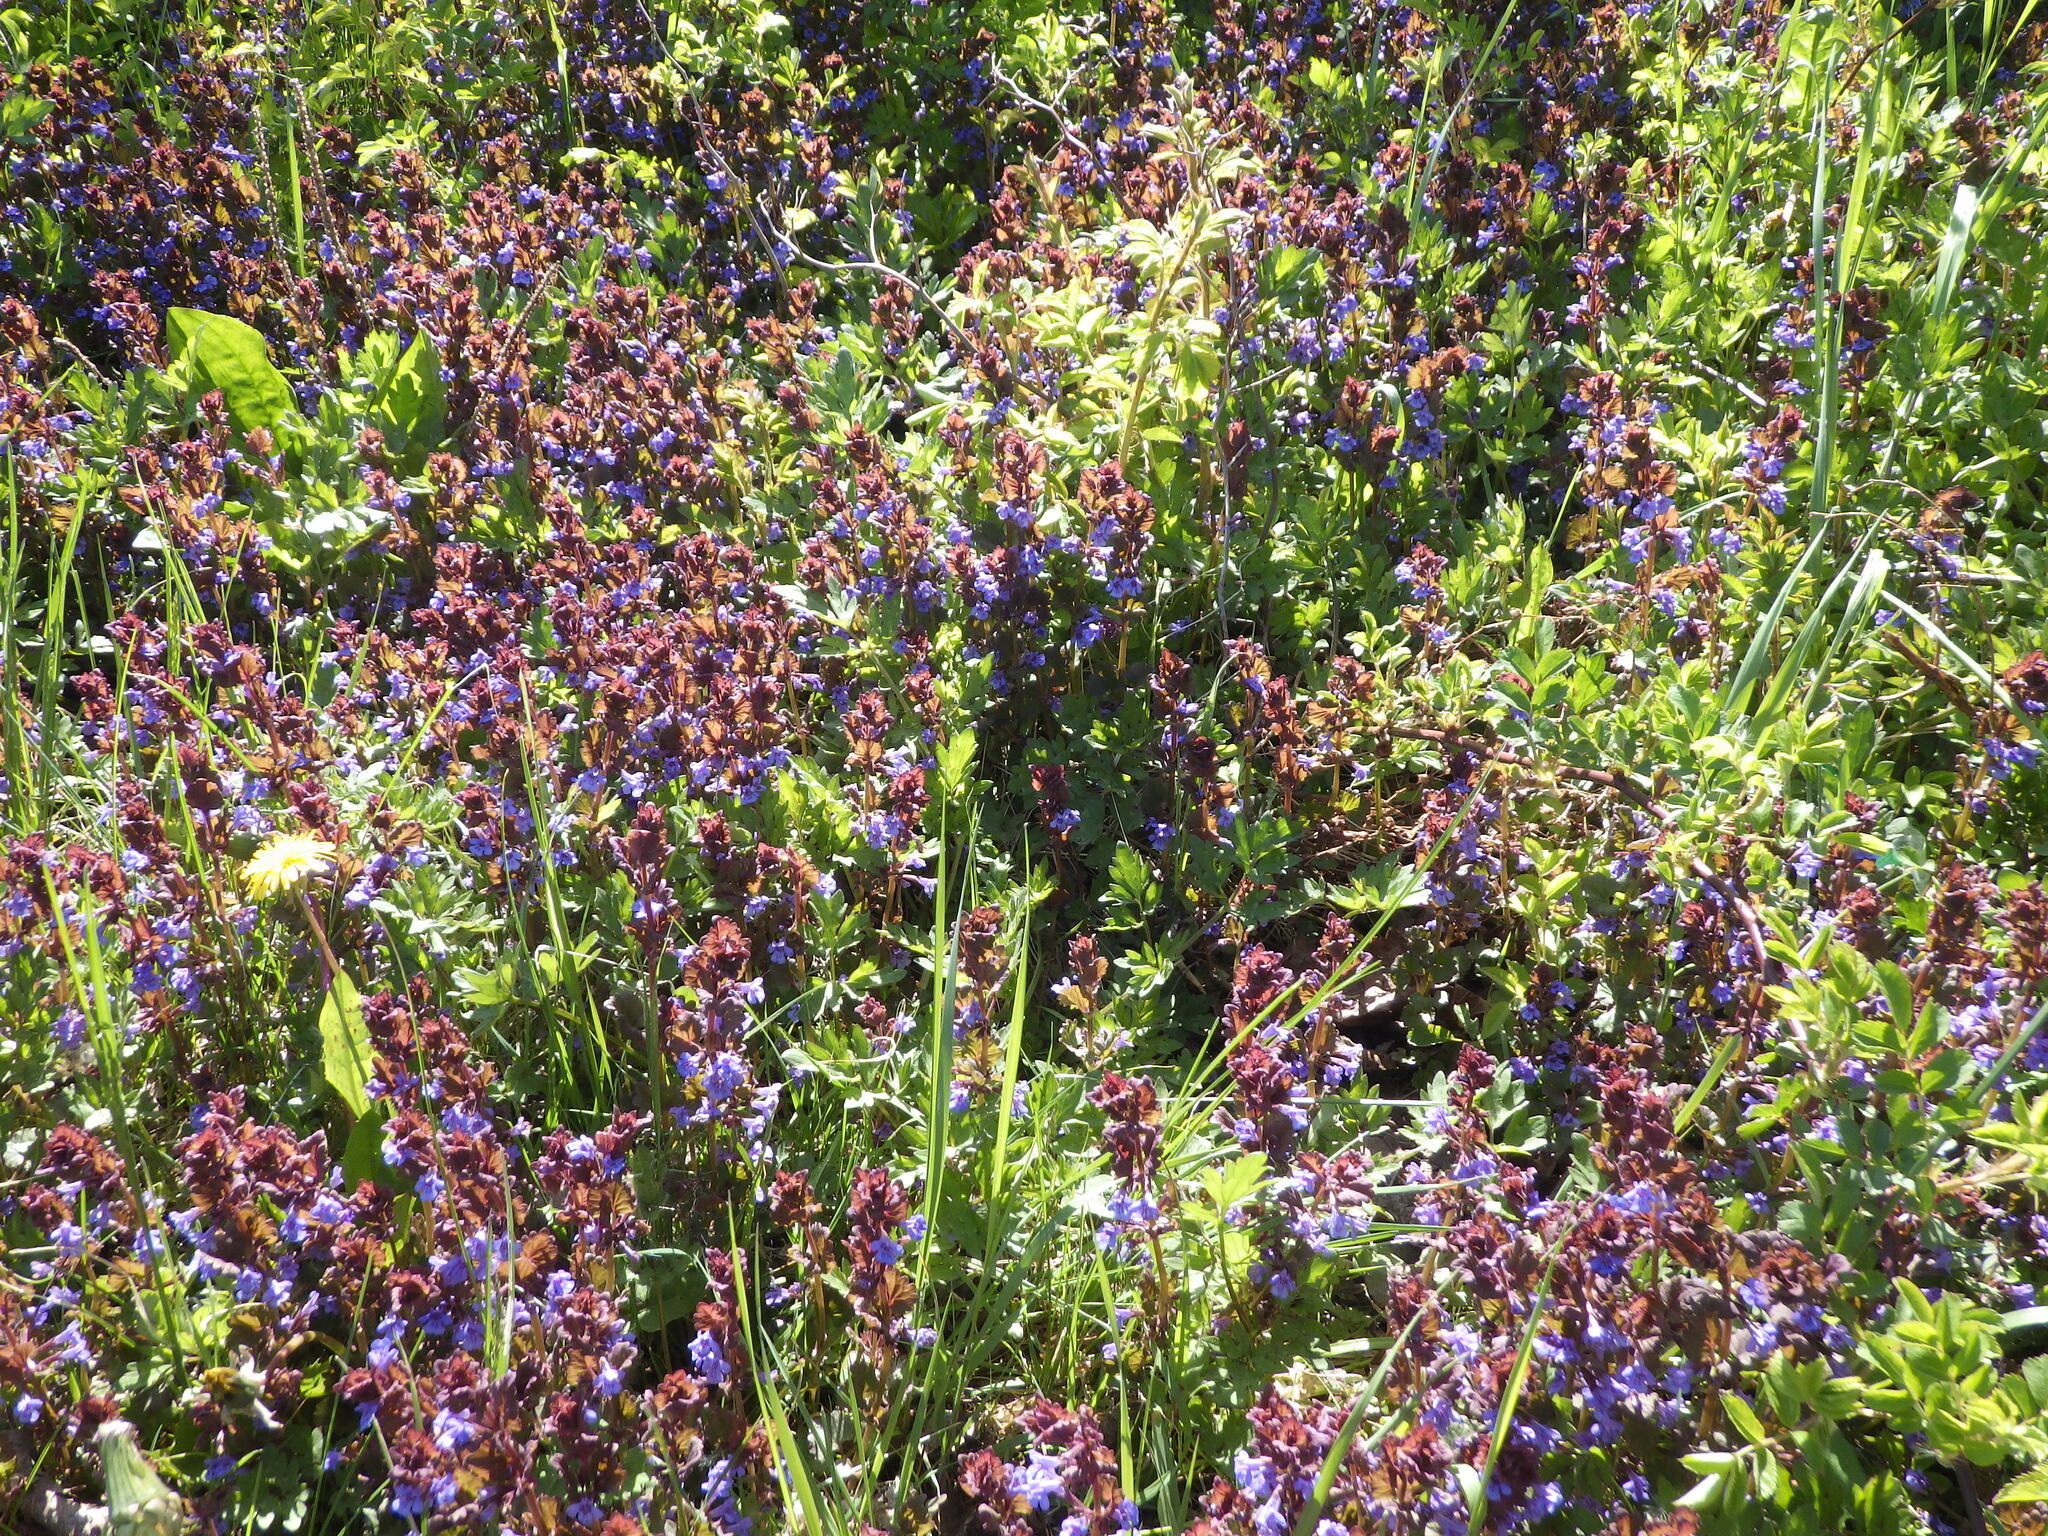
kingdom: Plantae
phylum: Tracheophyta
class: Magnoliopsida
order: Lamiales
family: Lamiaceae
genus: Glechoma
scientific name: Glechoma hederacea
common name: Ground ivy
